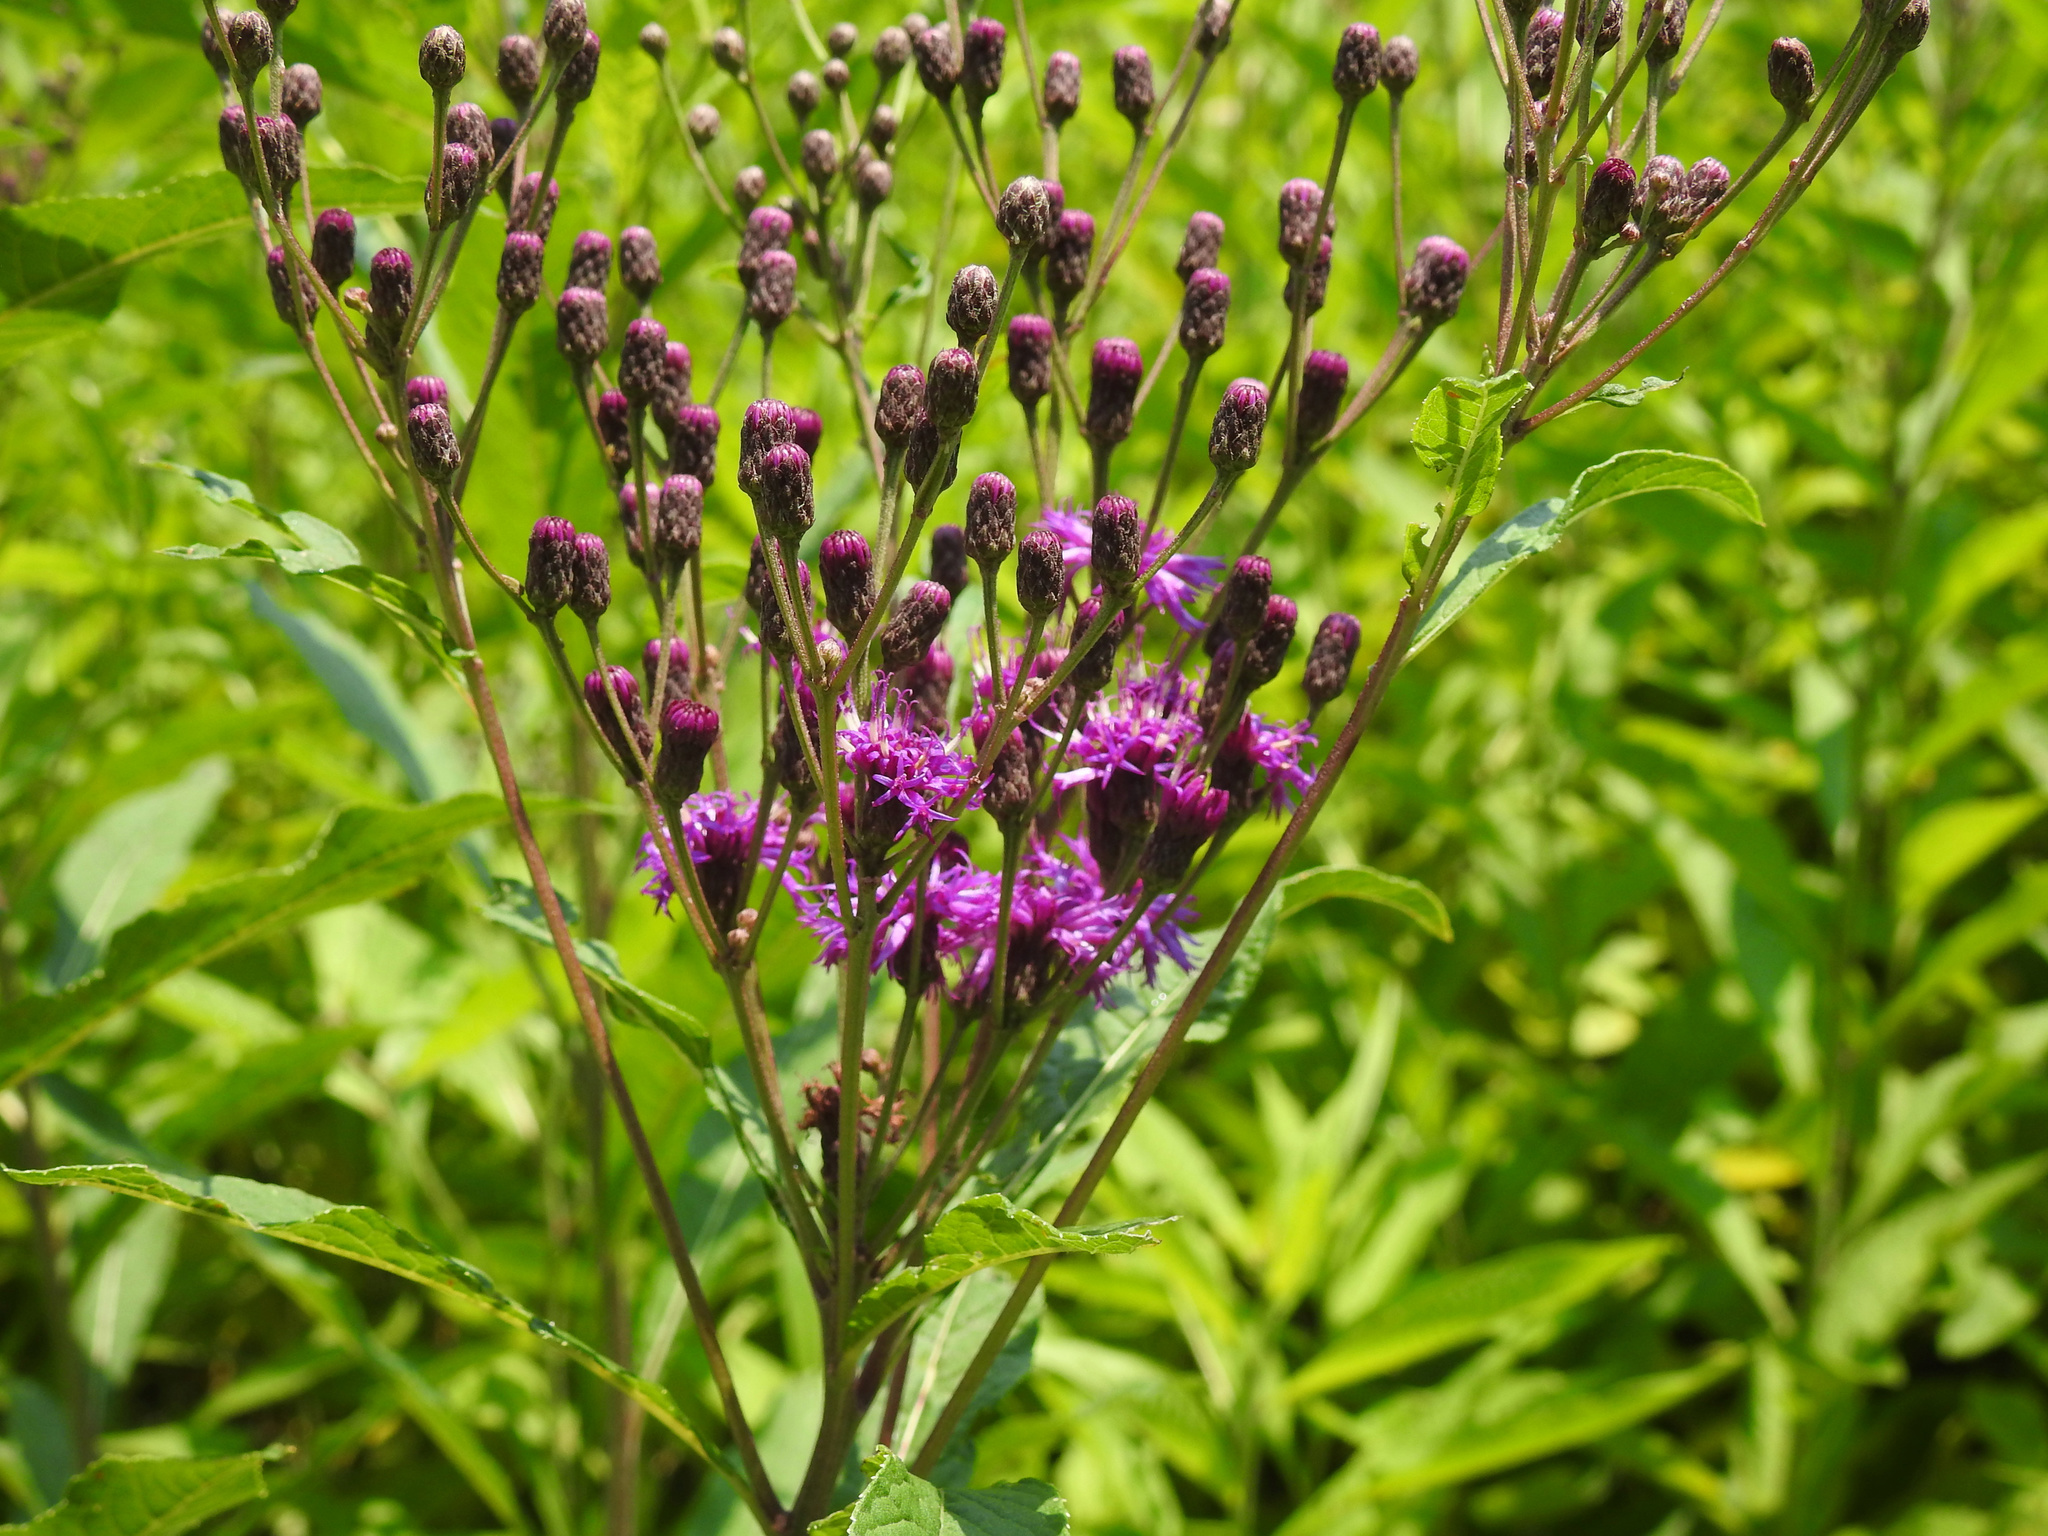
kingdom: Plantae
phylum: Tracheophyta
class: Magnoliopsida
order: Asterales
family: Asteraceae
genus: Vernonia
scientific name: Vernonia noveboracensis
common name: New york ironweed
